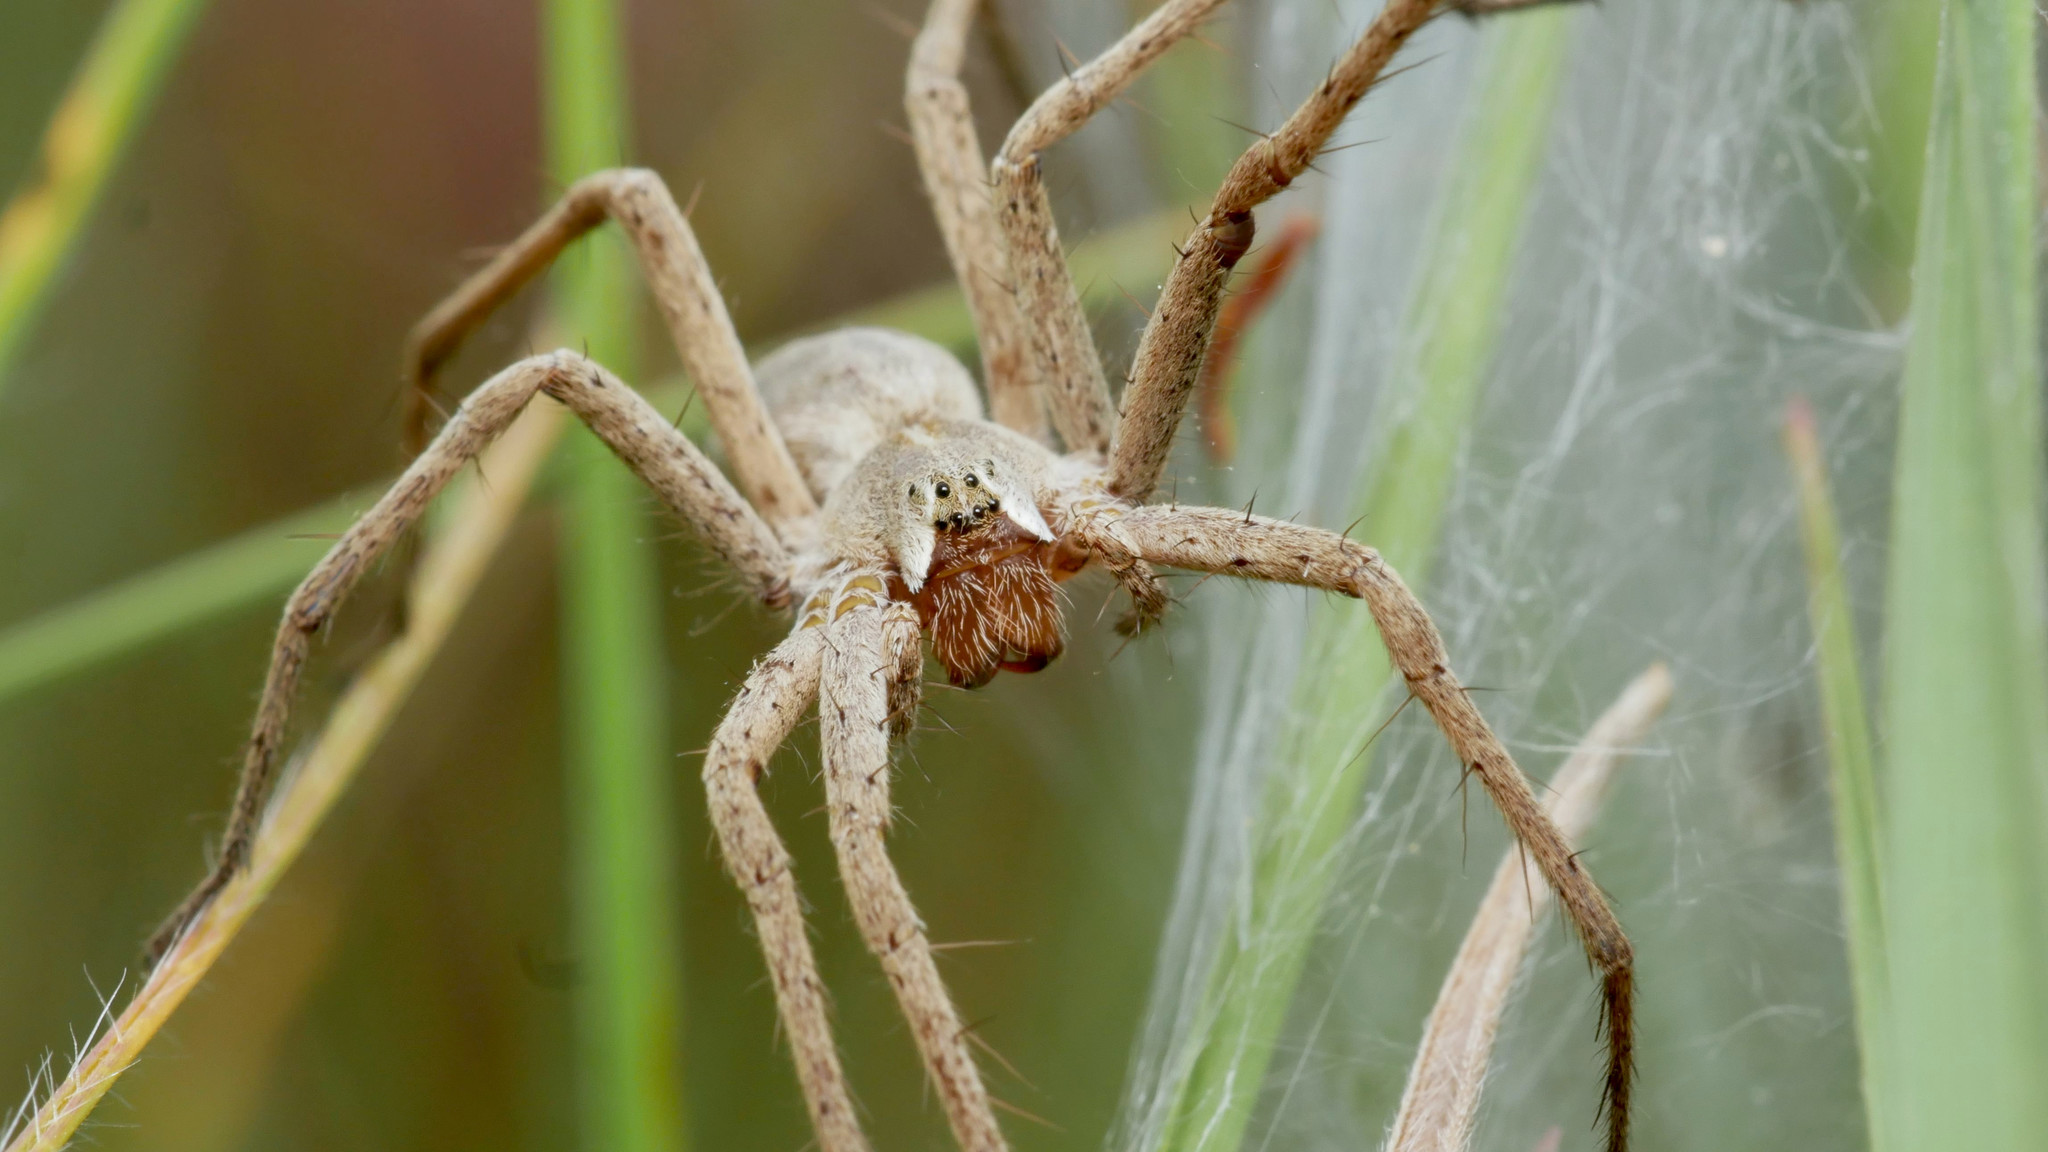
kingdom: Animalia
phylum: Arthropoda
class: Arachnida
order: Araneae
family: Pisauridae
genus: Pisaura
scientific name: Pisaura mirabilis
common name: Tent spider
